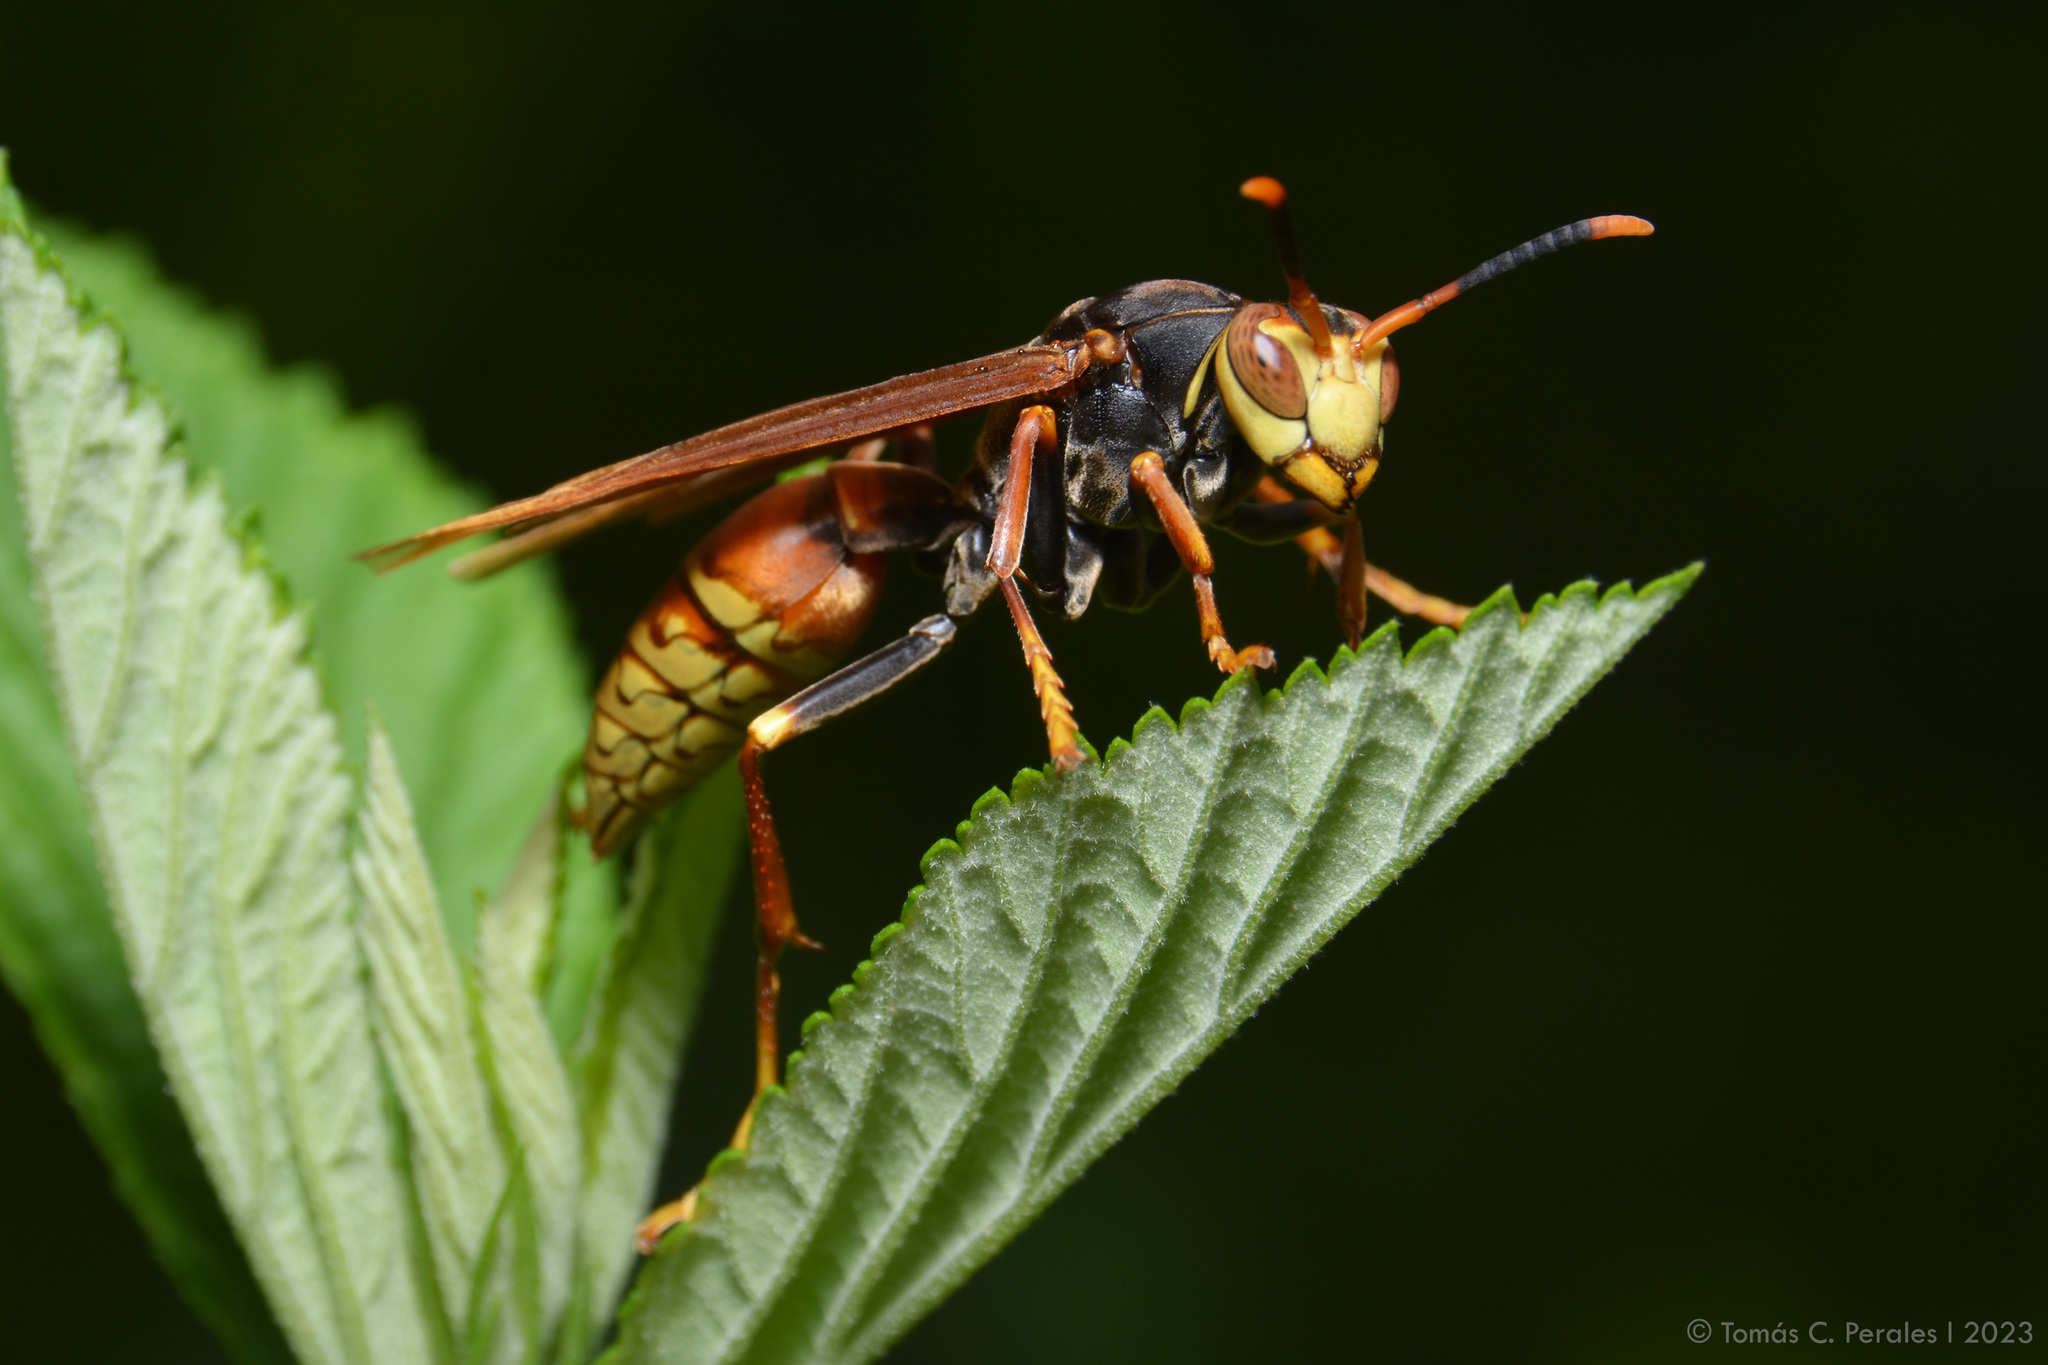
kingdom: Animalia
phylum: Arthropoda
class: Insecta
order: Hymenoptera
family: Eumenidae
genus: Polistes
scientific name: Polistes buyssoni
